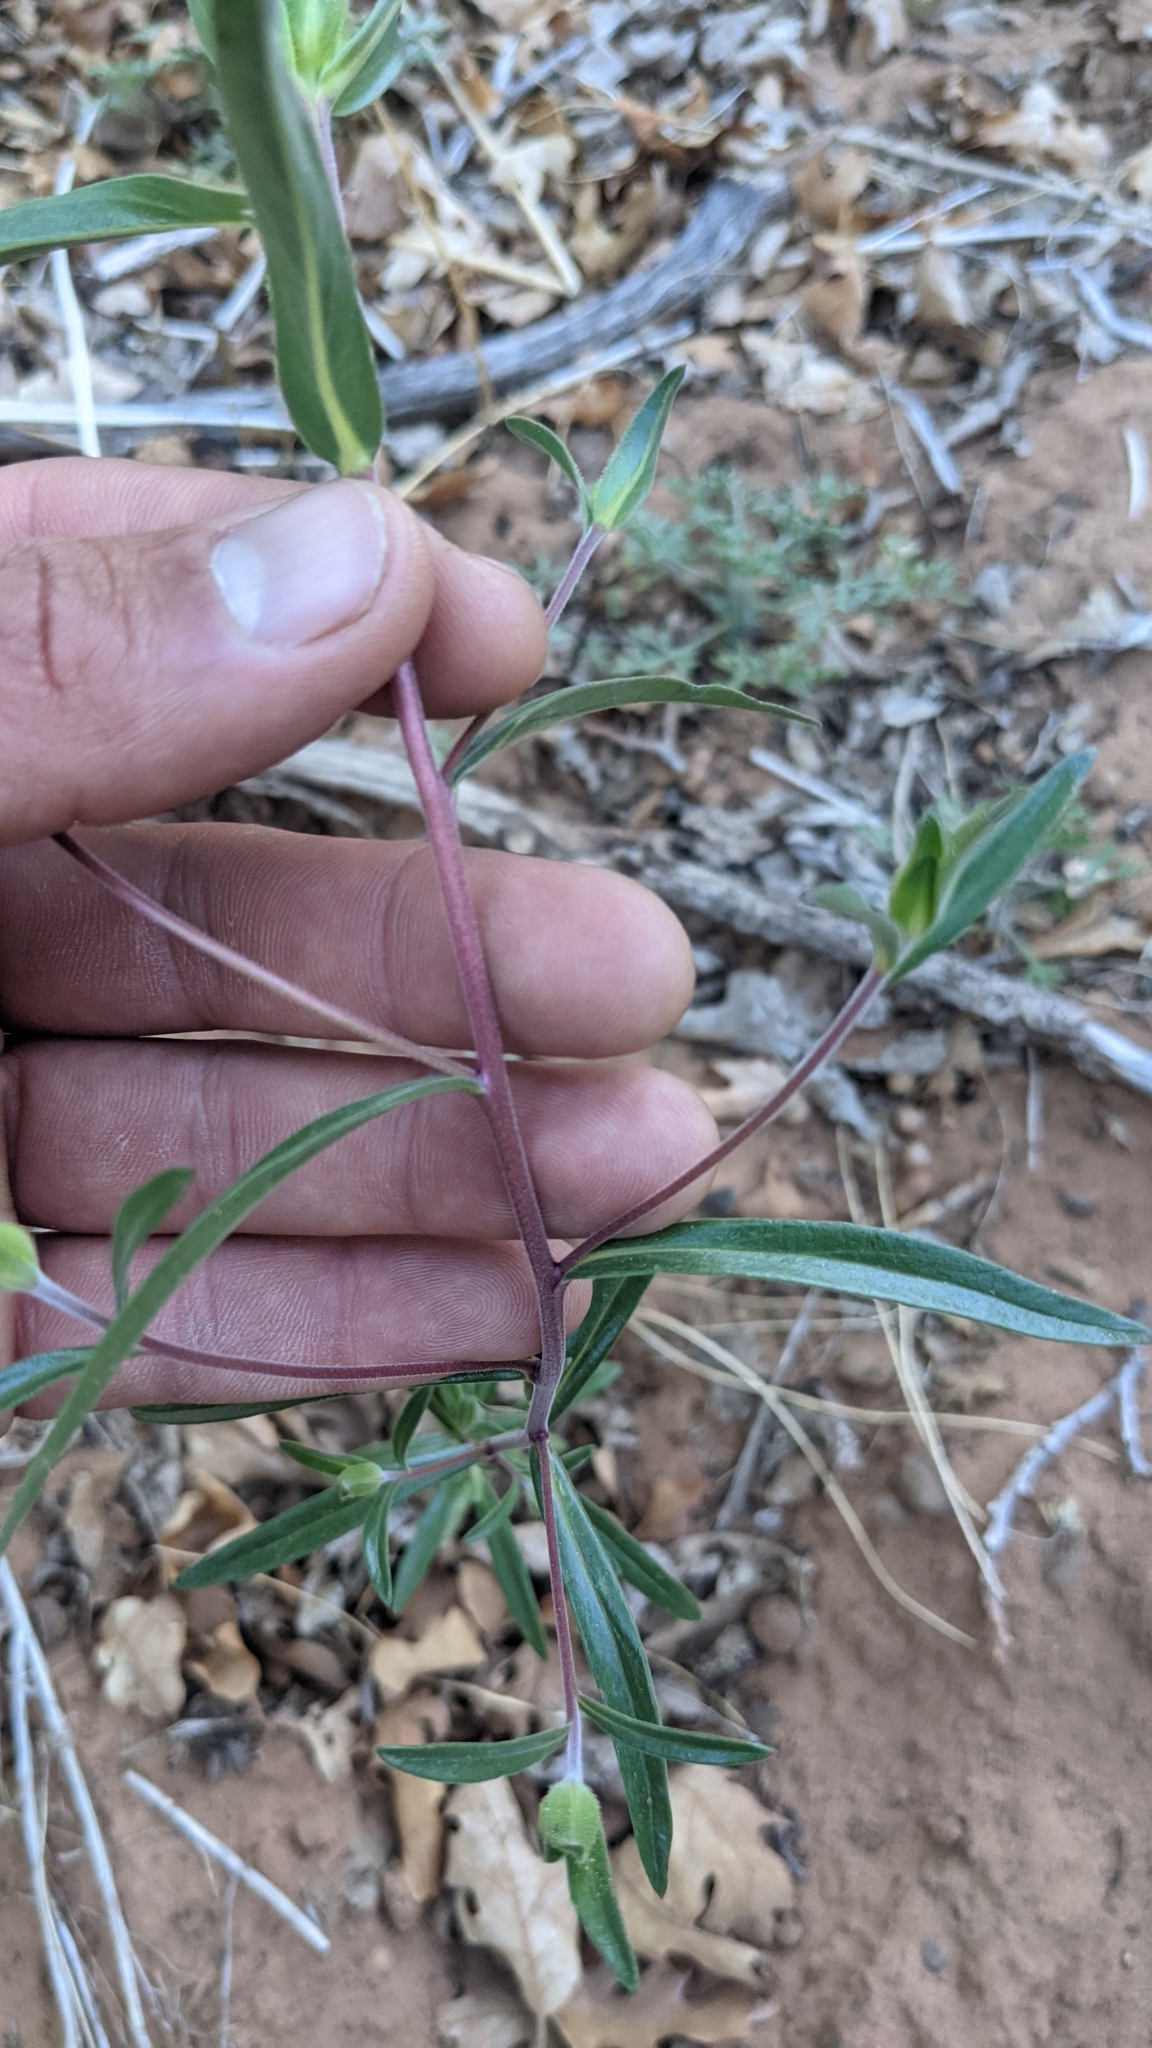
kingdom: Plantae
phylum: Tracheophyta
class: Magnoliopsida
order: Ericales
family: Polemoniaceae
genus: Collomia
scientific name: Collomia grandiflora
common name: California strawflower
